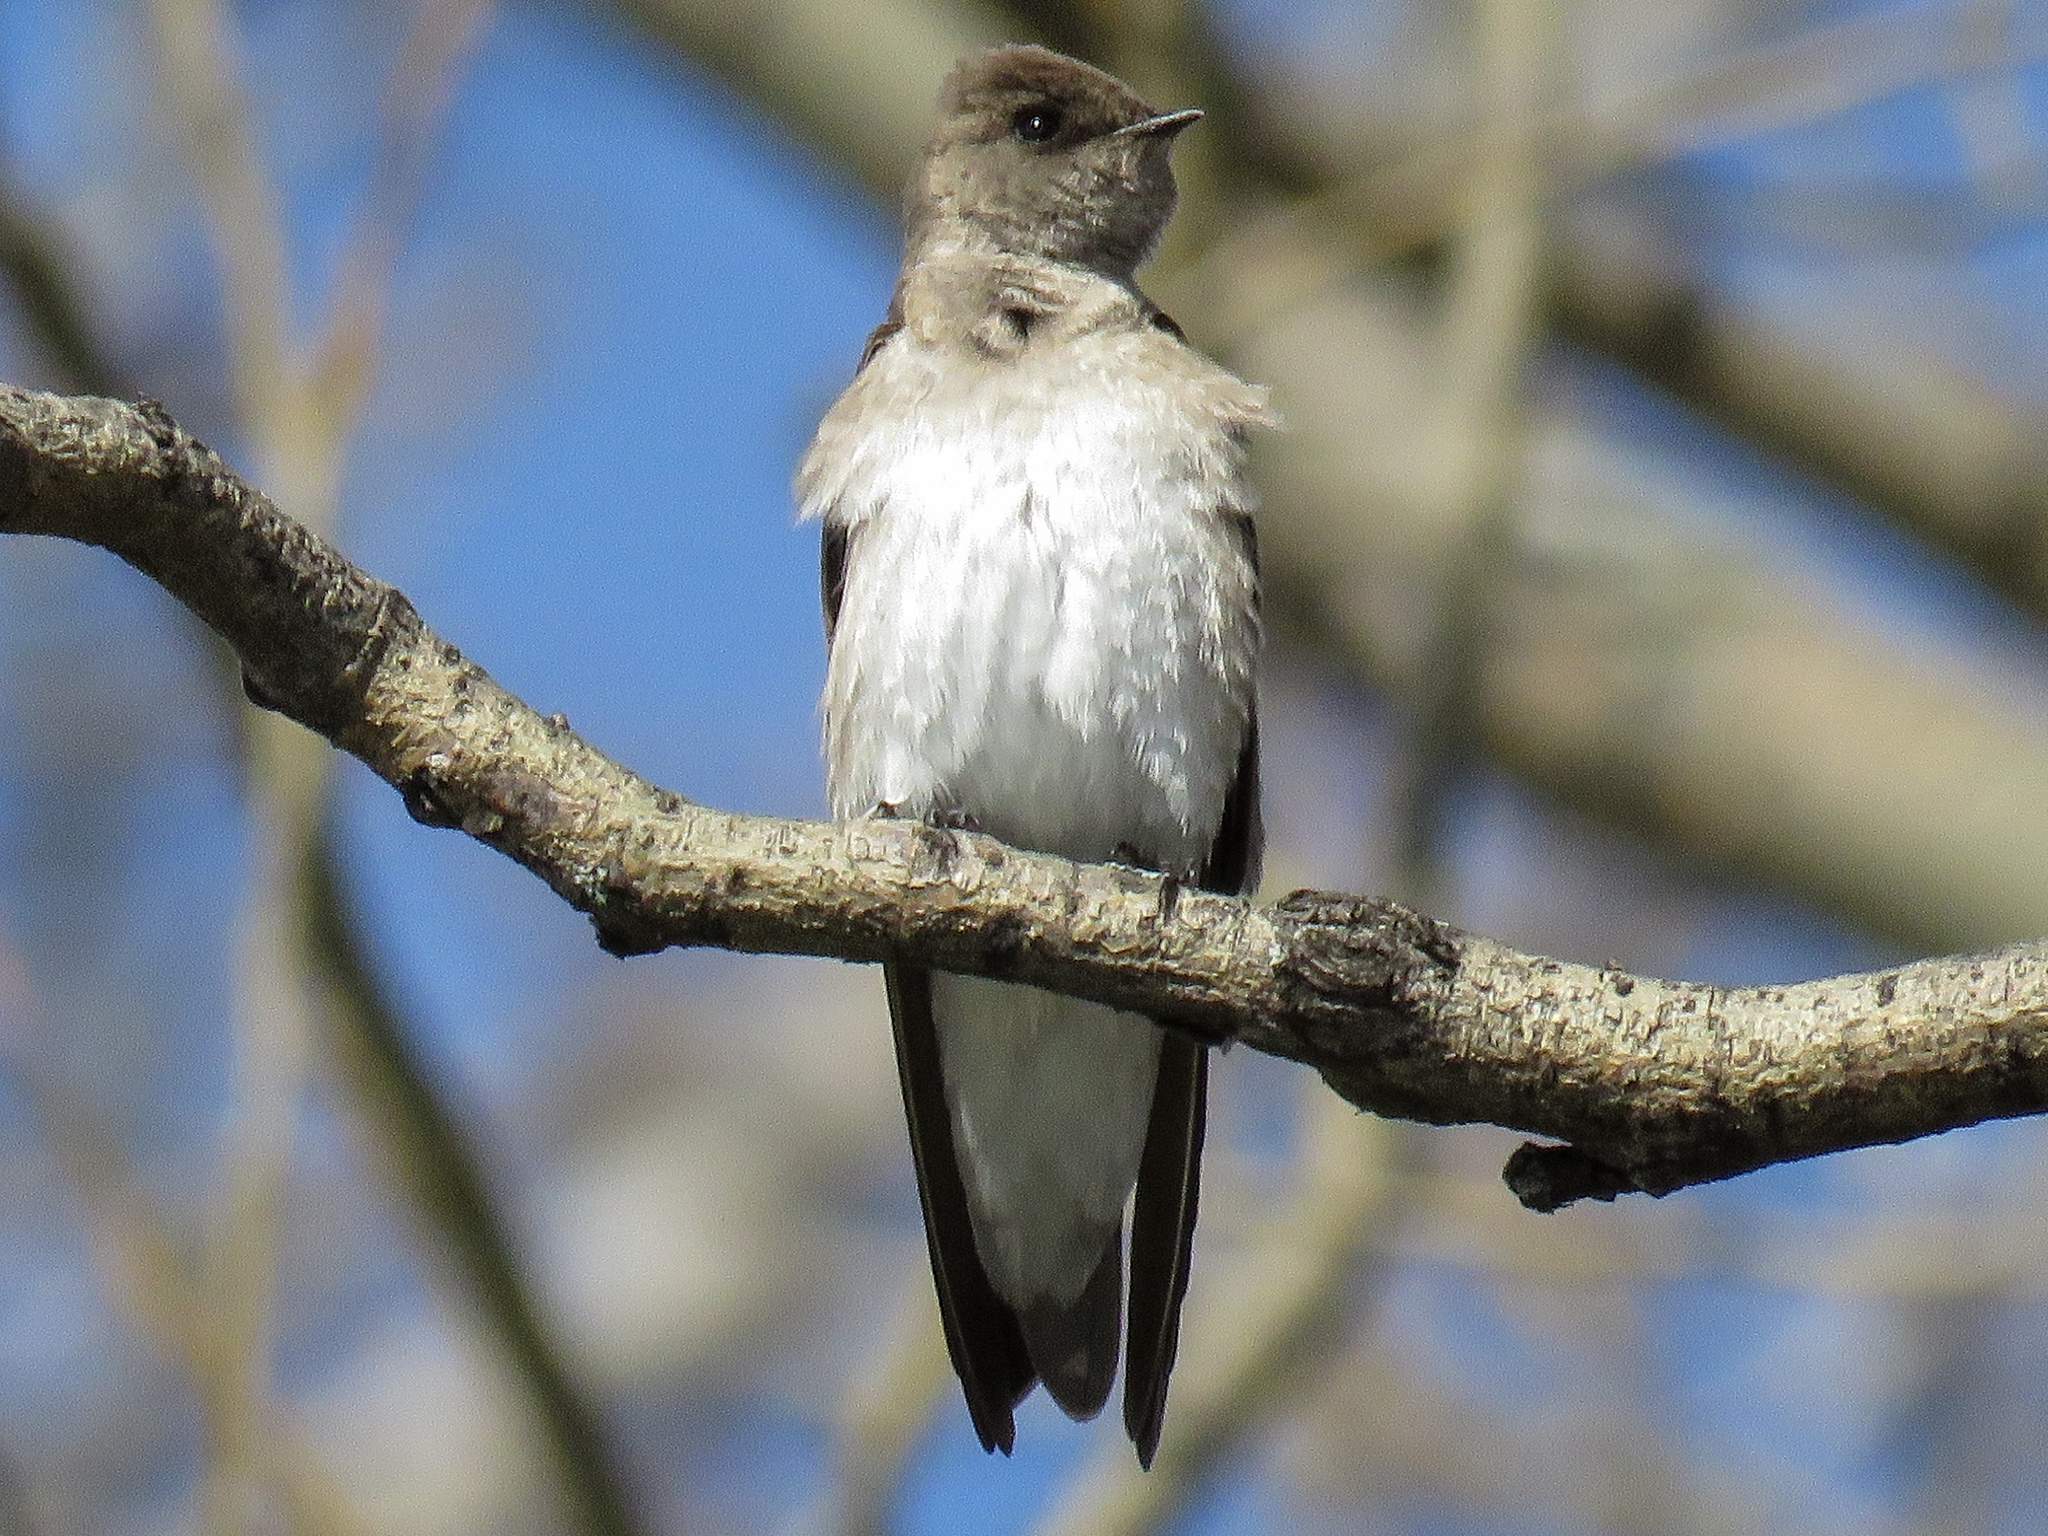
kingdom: Animalia
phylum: Chordata
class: Aves
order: Passeriformes
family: Hirundinidae
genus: Stelgidopteryx
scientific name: Stelgidopteryx serripennis
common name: Northern rough-winged swallow
